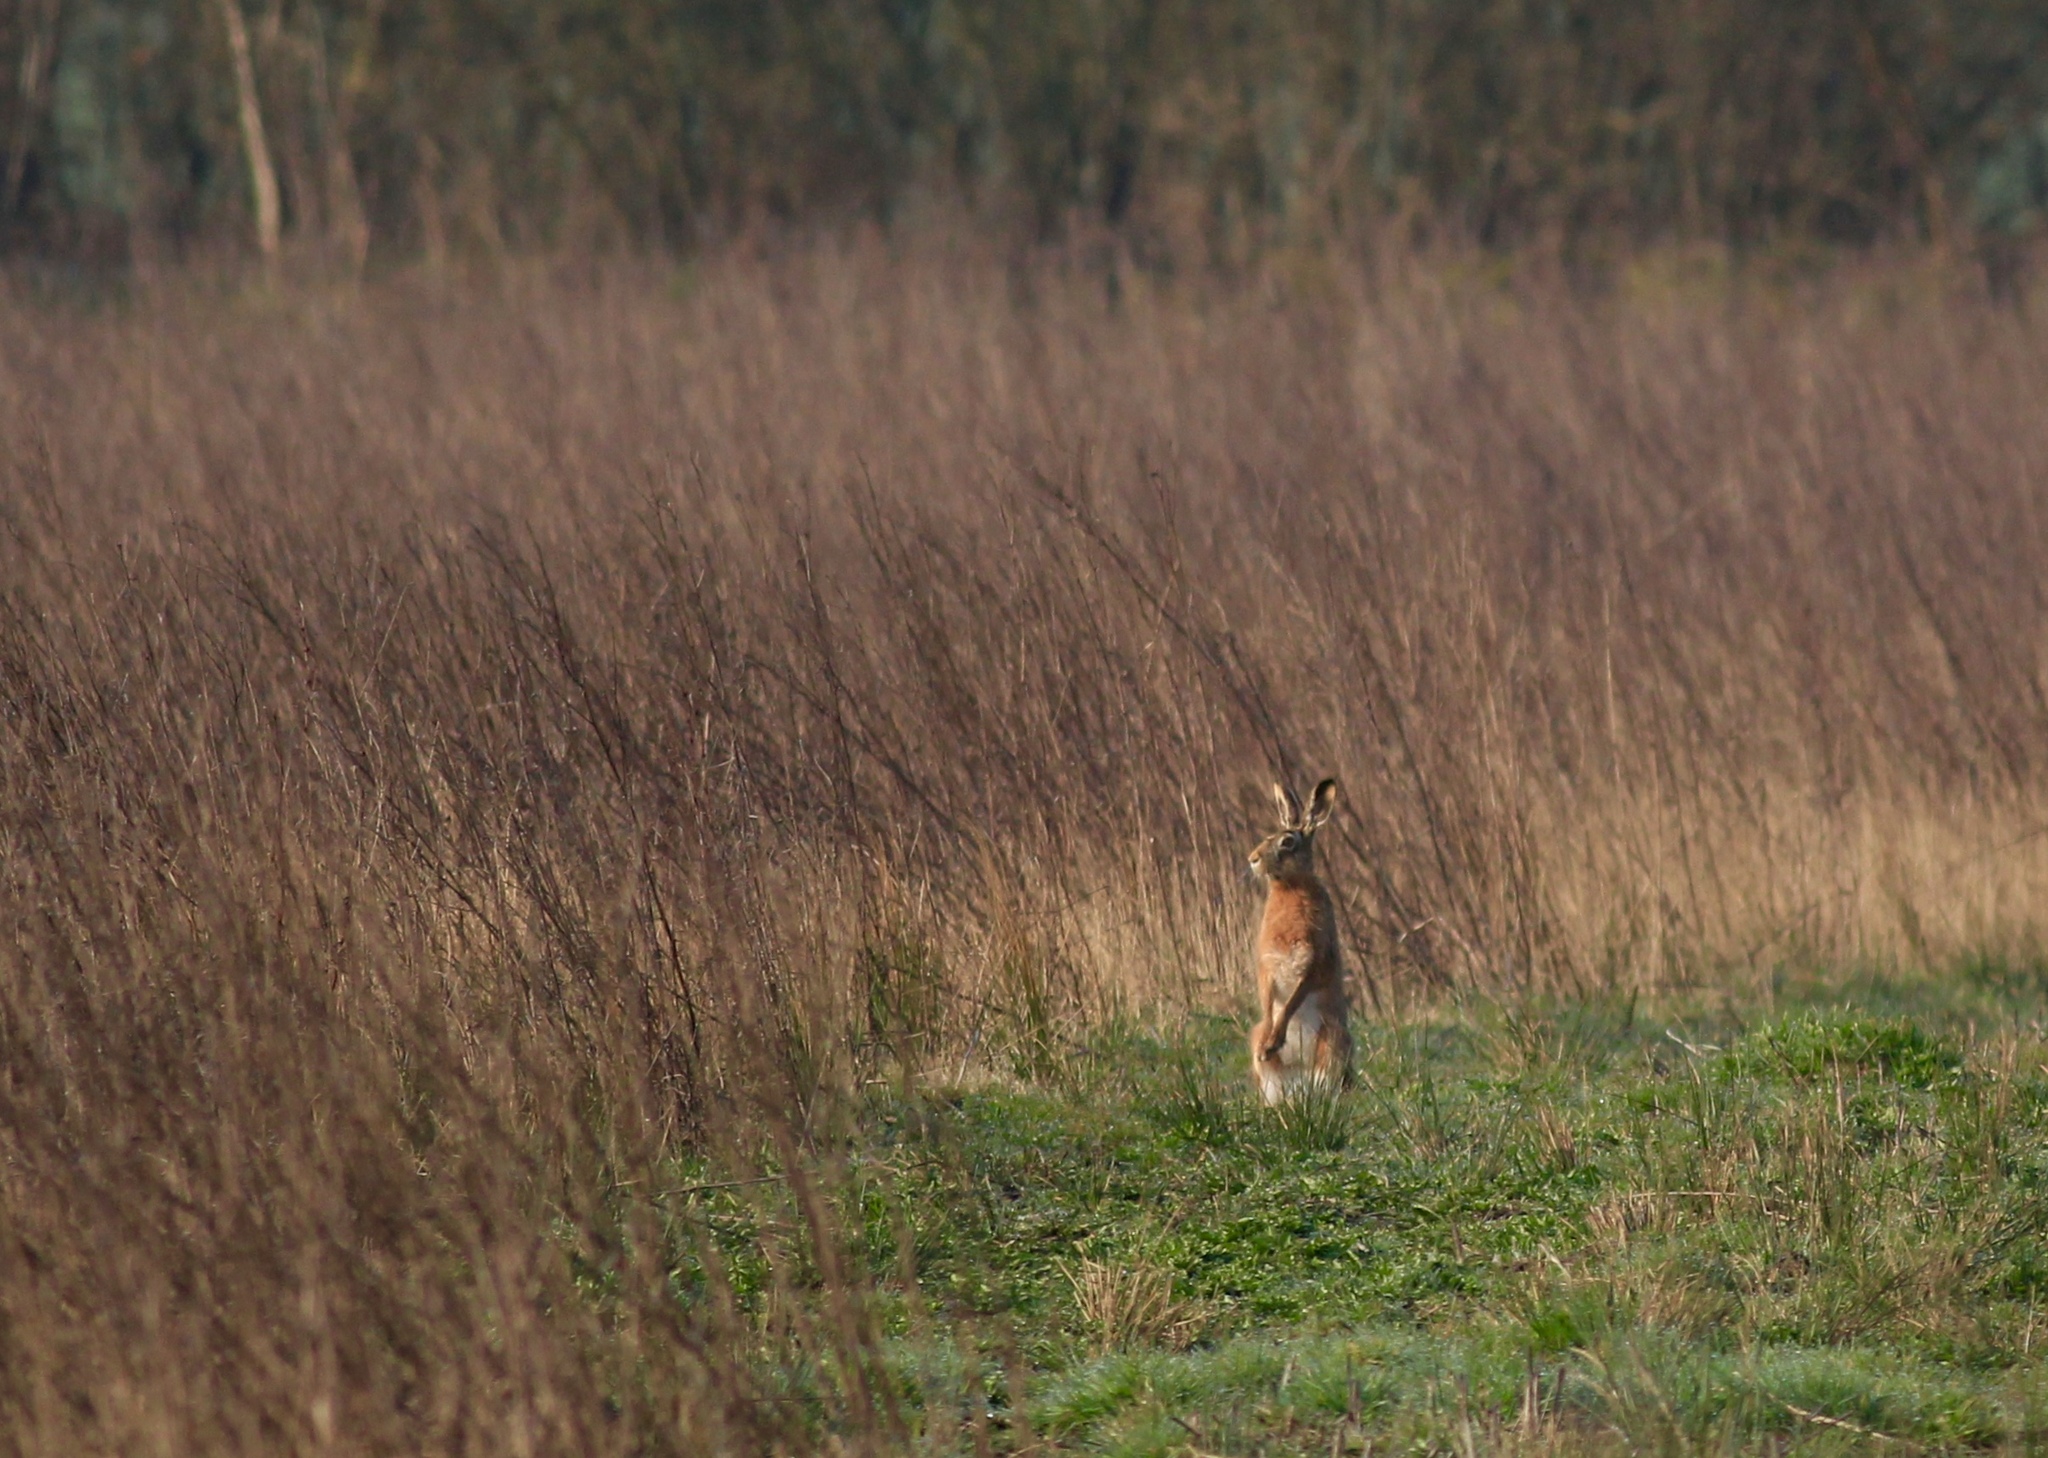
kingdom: Animalia
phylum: Chordata
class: Mammalia
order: Lagomorpha
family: Leporidae
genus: Lepus
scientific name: Lepus europaeus
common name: European hare
